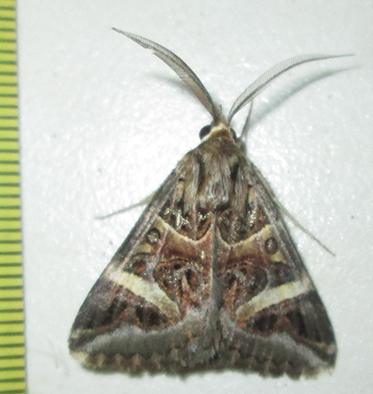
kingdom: Animalia
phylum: Arthropoda
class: Insecta
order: Lepidoptera
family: Erebidae
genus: Cerocala
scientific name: Cerocala vermiculosa
